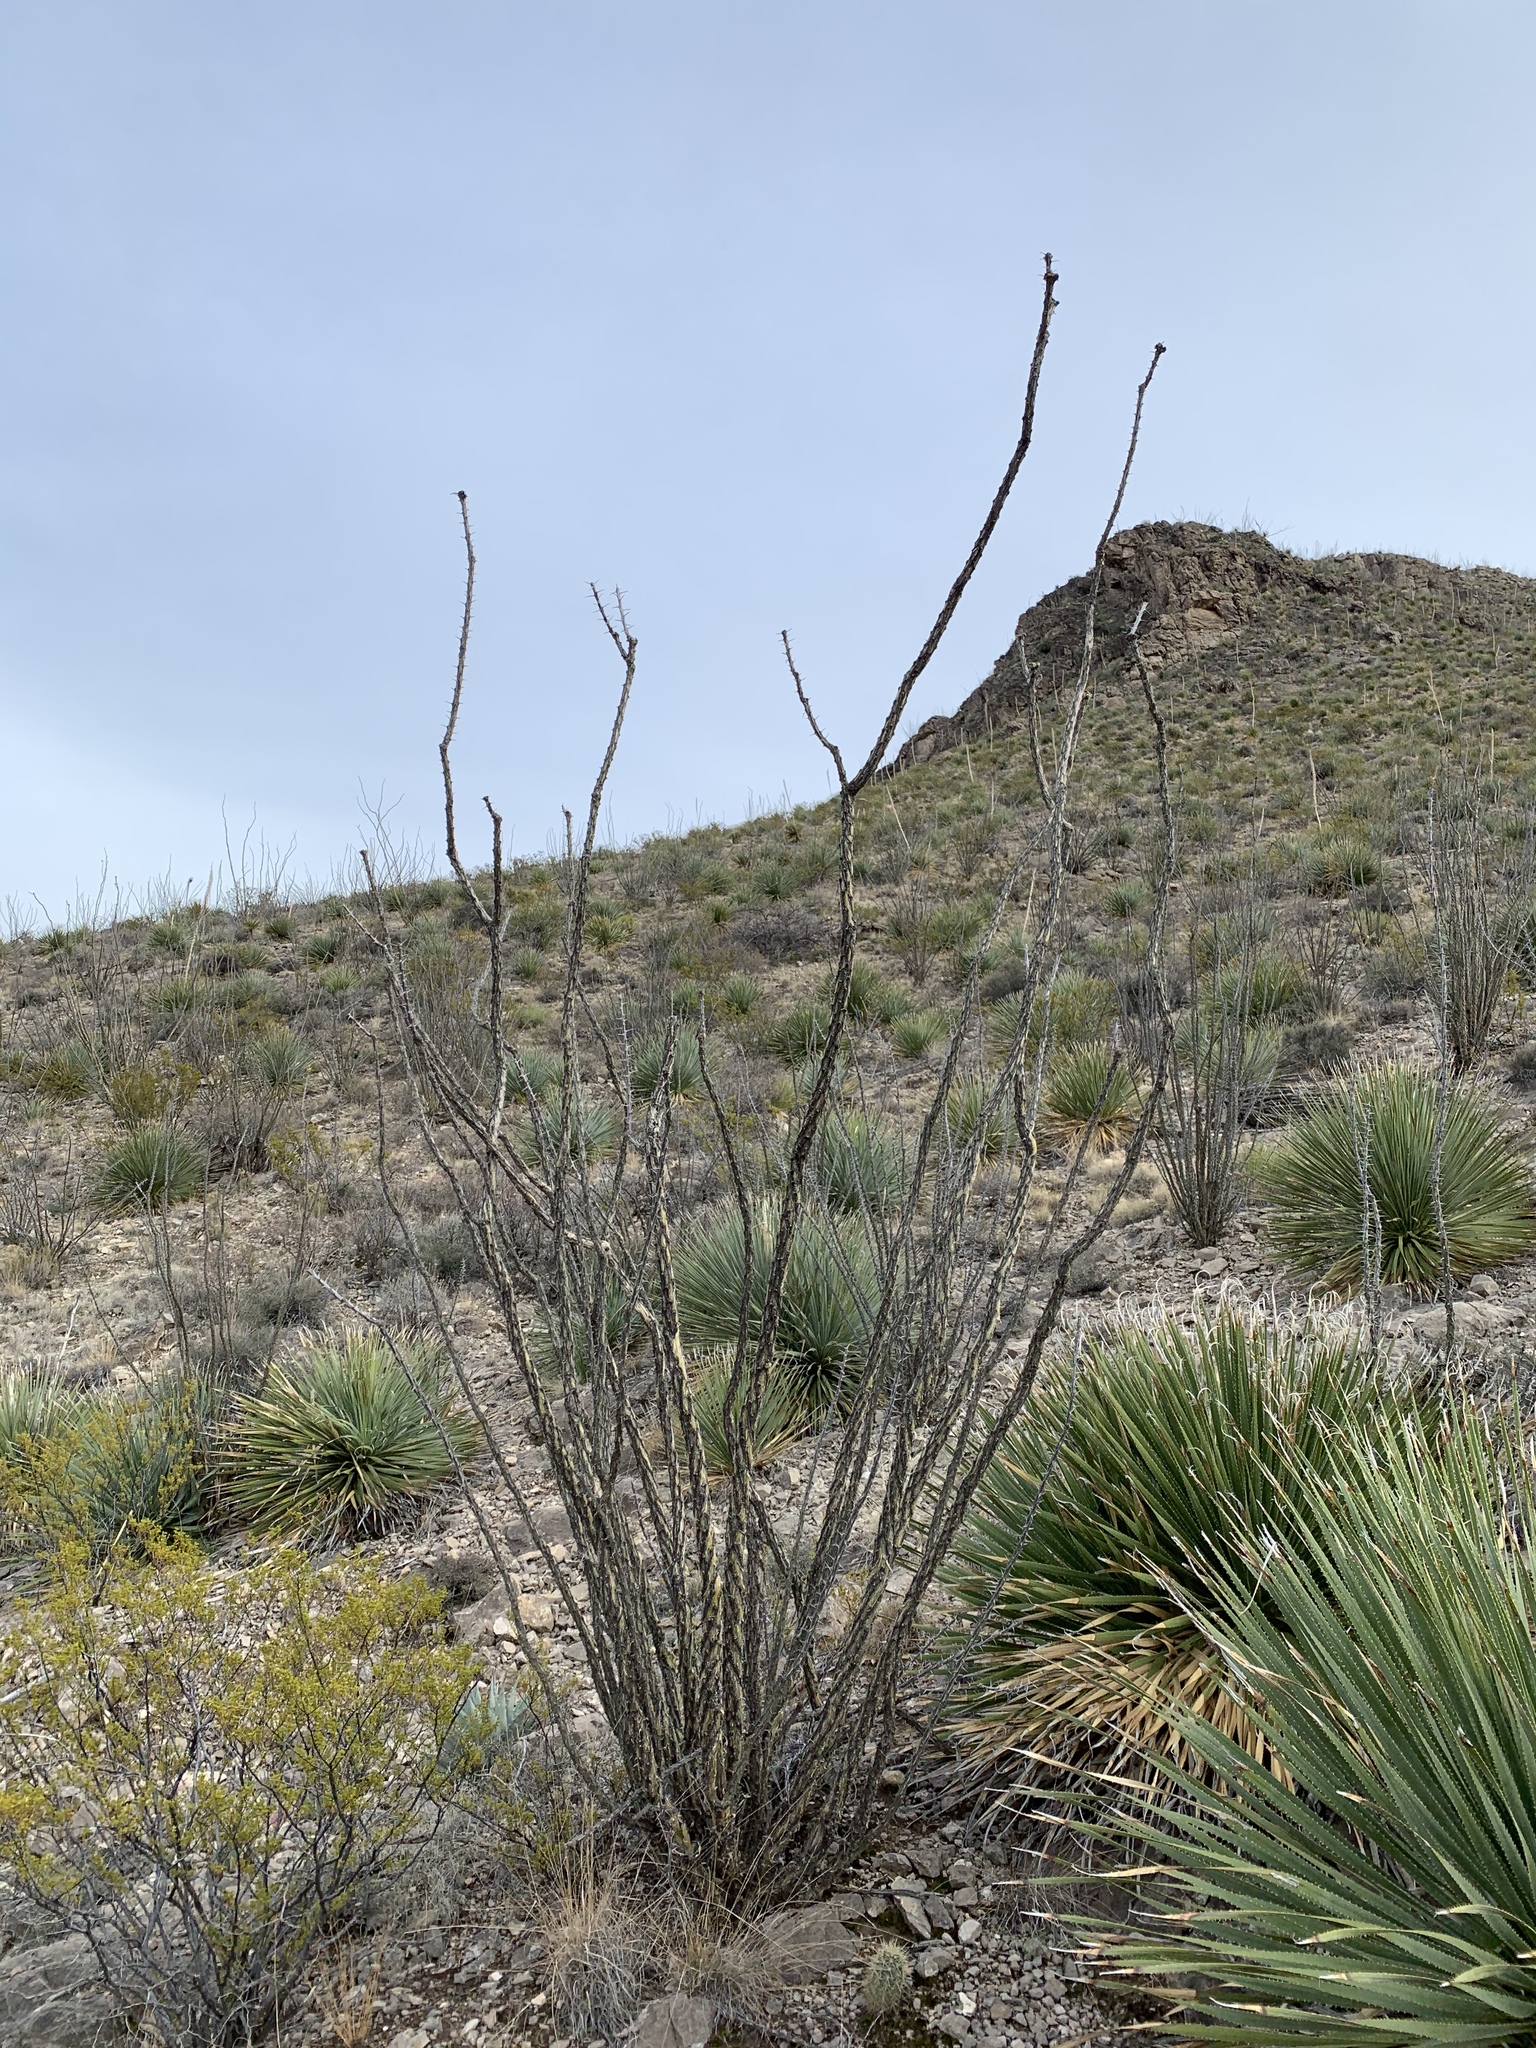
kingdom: Plantae
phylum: Tracheophyta
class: Magnoliopsida
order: Ericales
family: Fouquieriaceae
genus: Fouquieria
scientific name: Fouquieria splendens
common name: Vine-cactus
